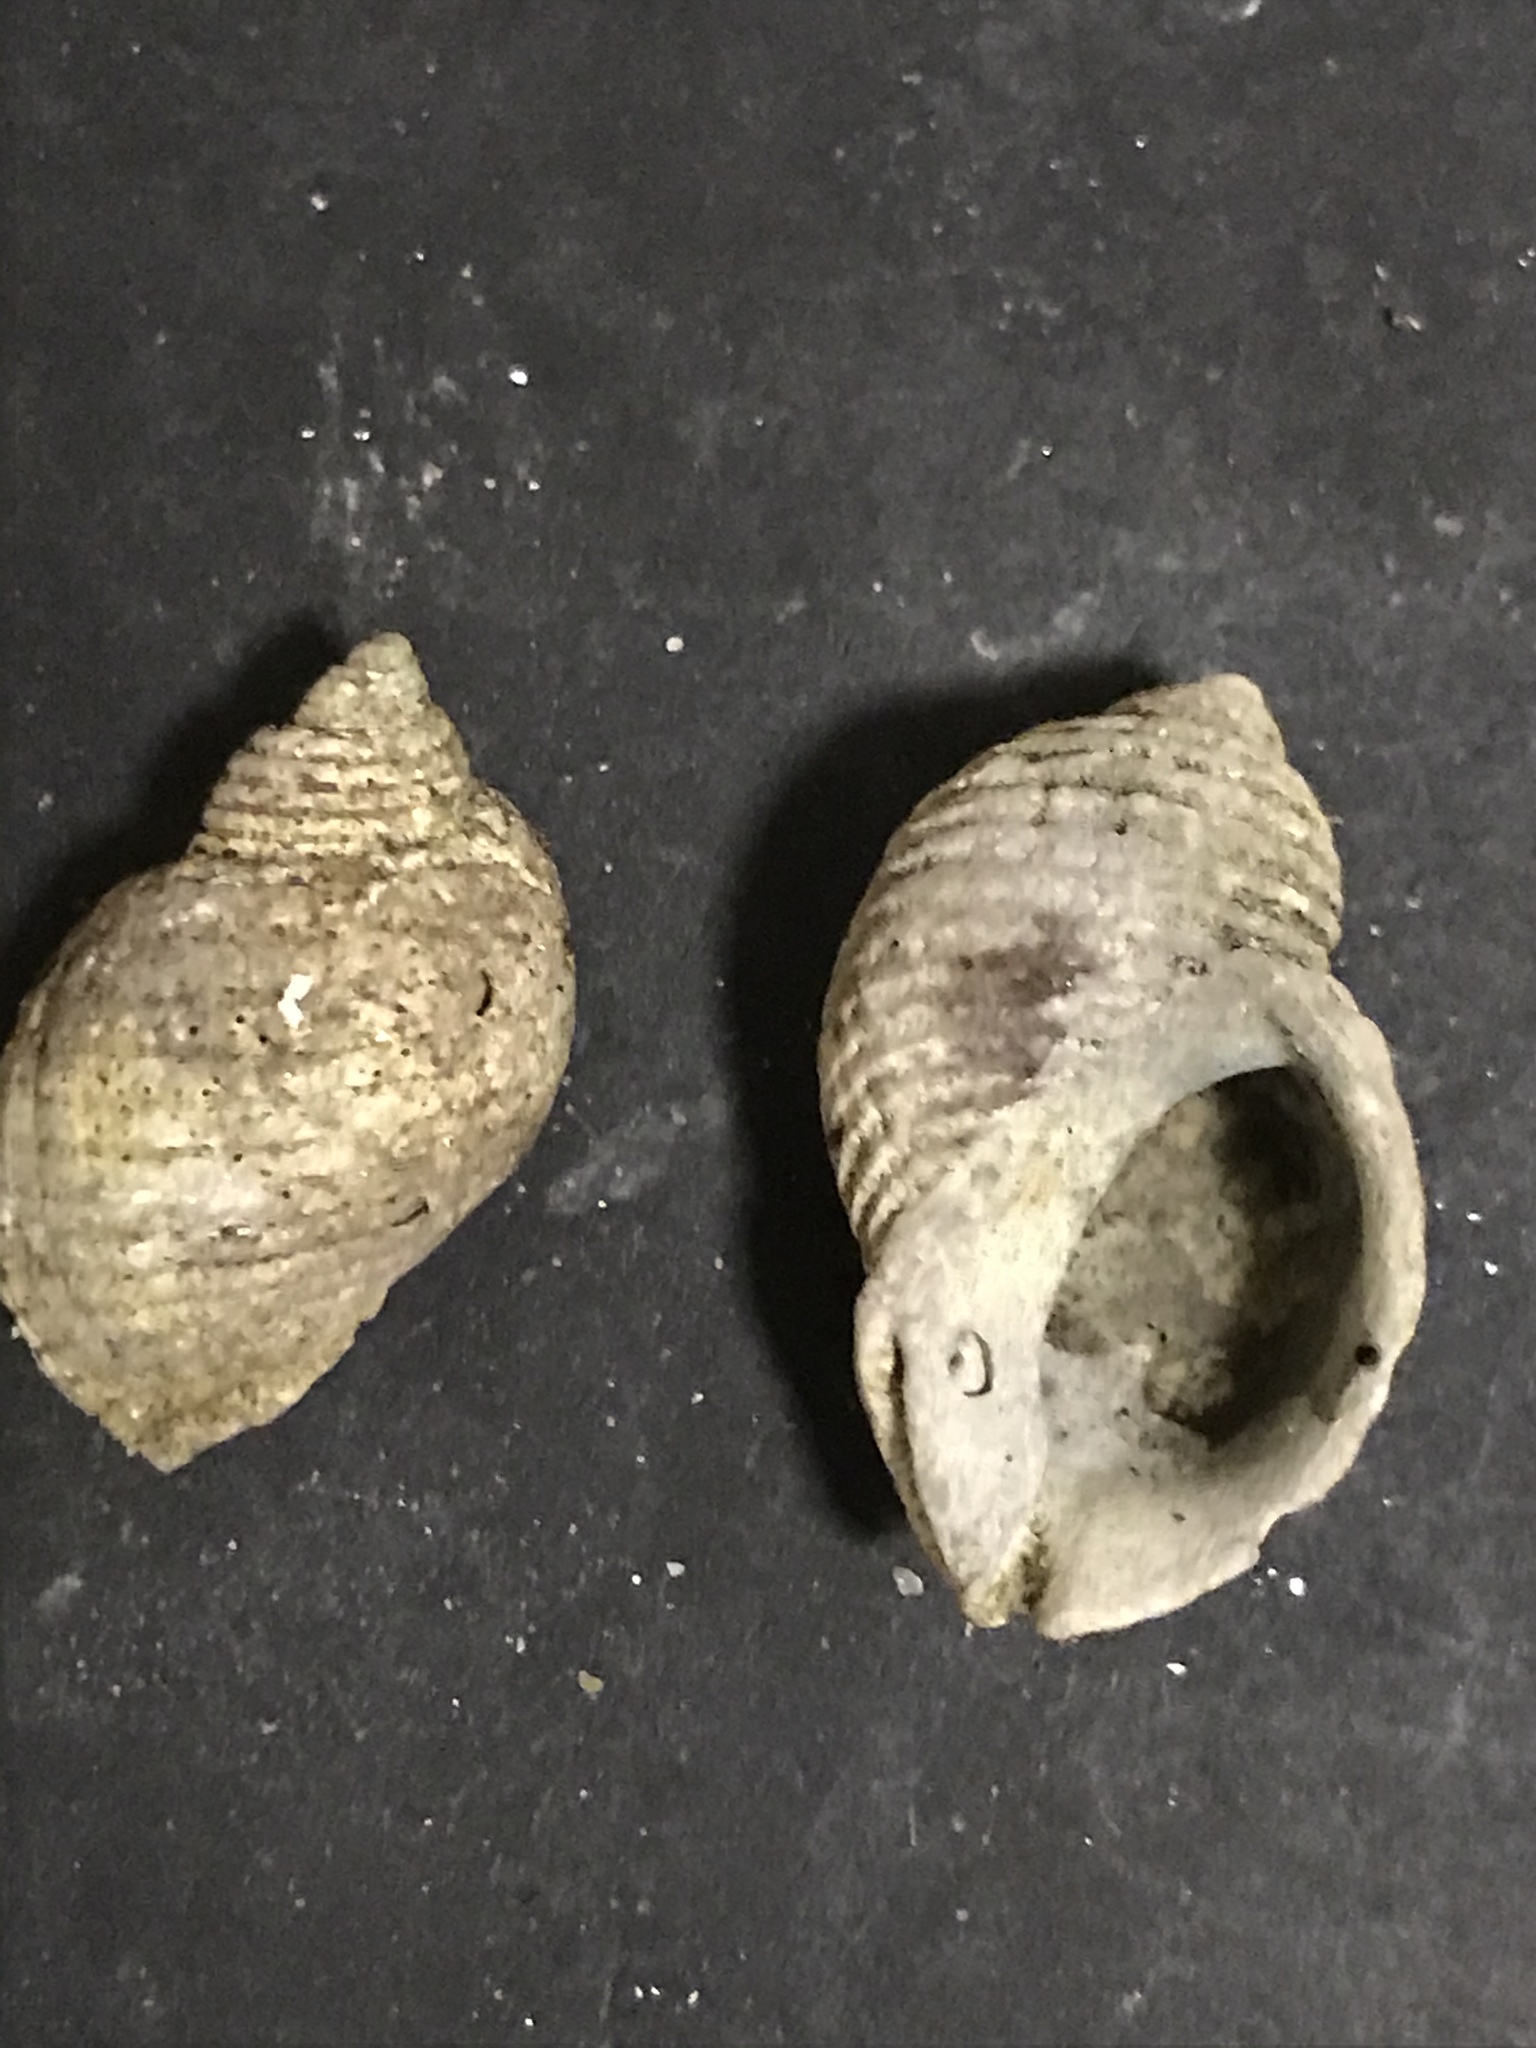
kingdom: Animalia
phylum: Mollusca
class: Gastropoda
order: Neogastropoda
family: Muricidae
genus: Nucella
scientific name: Nucella analoga
